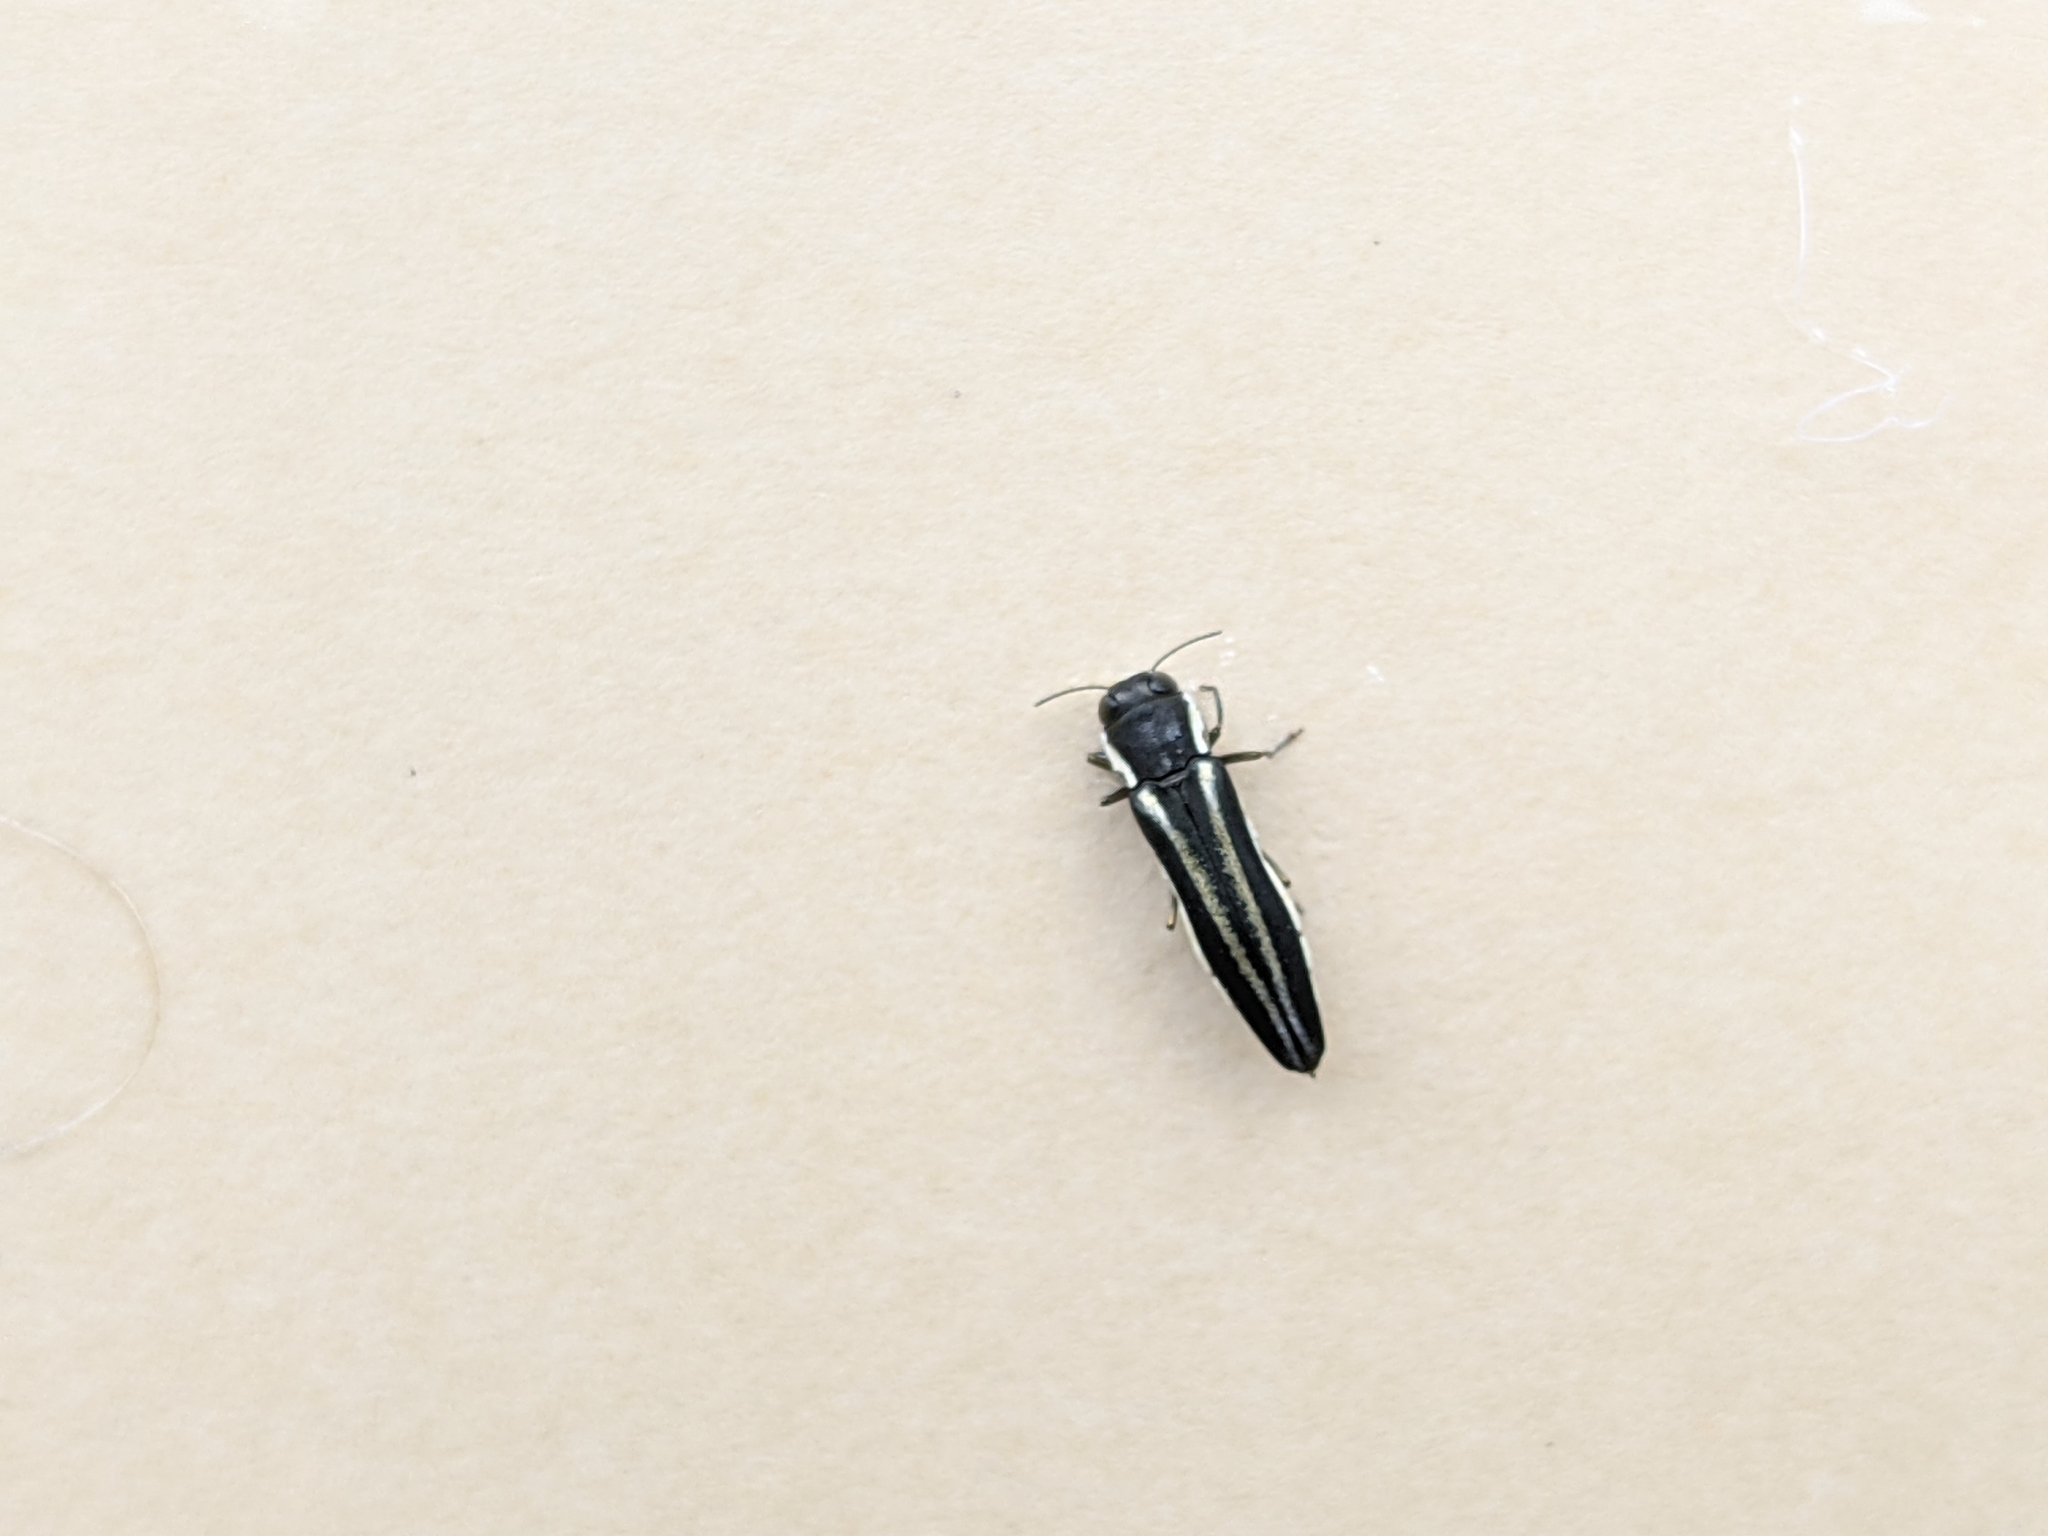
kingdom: Animalia
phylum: Arthropoda
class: Insecta
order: Coleoptera
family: Buprestidae
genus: Agrilus
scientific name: Agrilus bilineatus
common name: Two-lined chestnut borer
